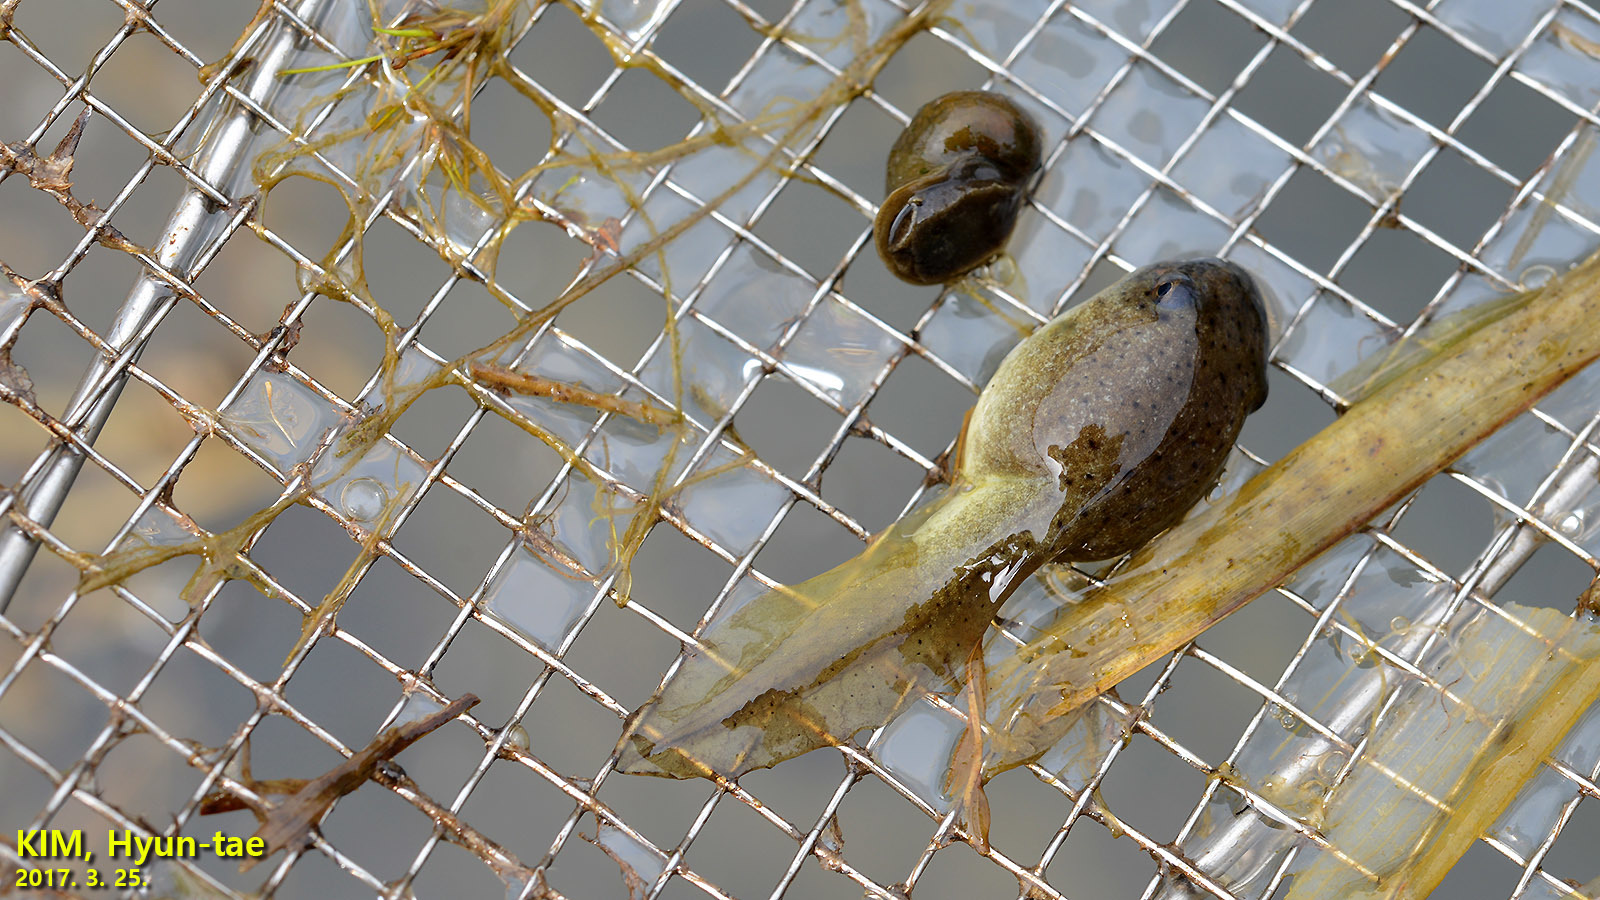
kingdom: Animalia
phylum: Chordata
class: Amphibia
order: Anura
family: Ranidae
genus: Lithobates
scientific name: Lithobates catesbeianus
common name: American bullfrog
